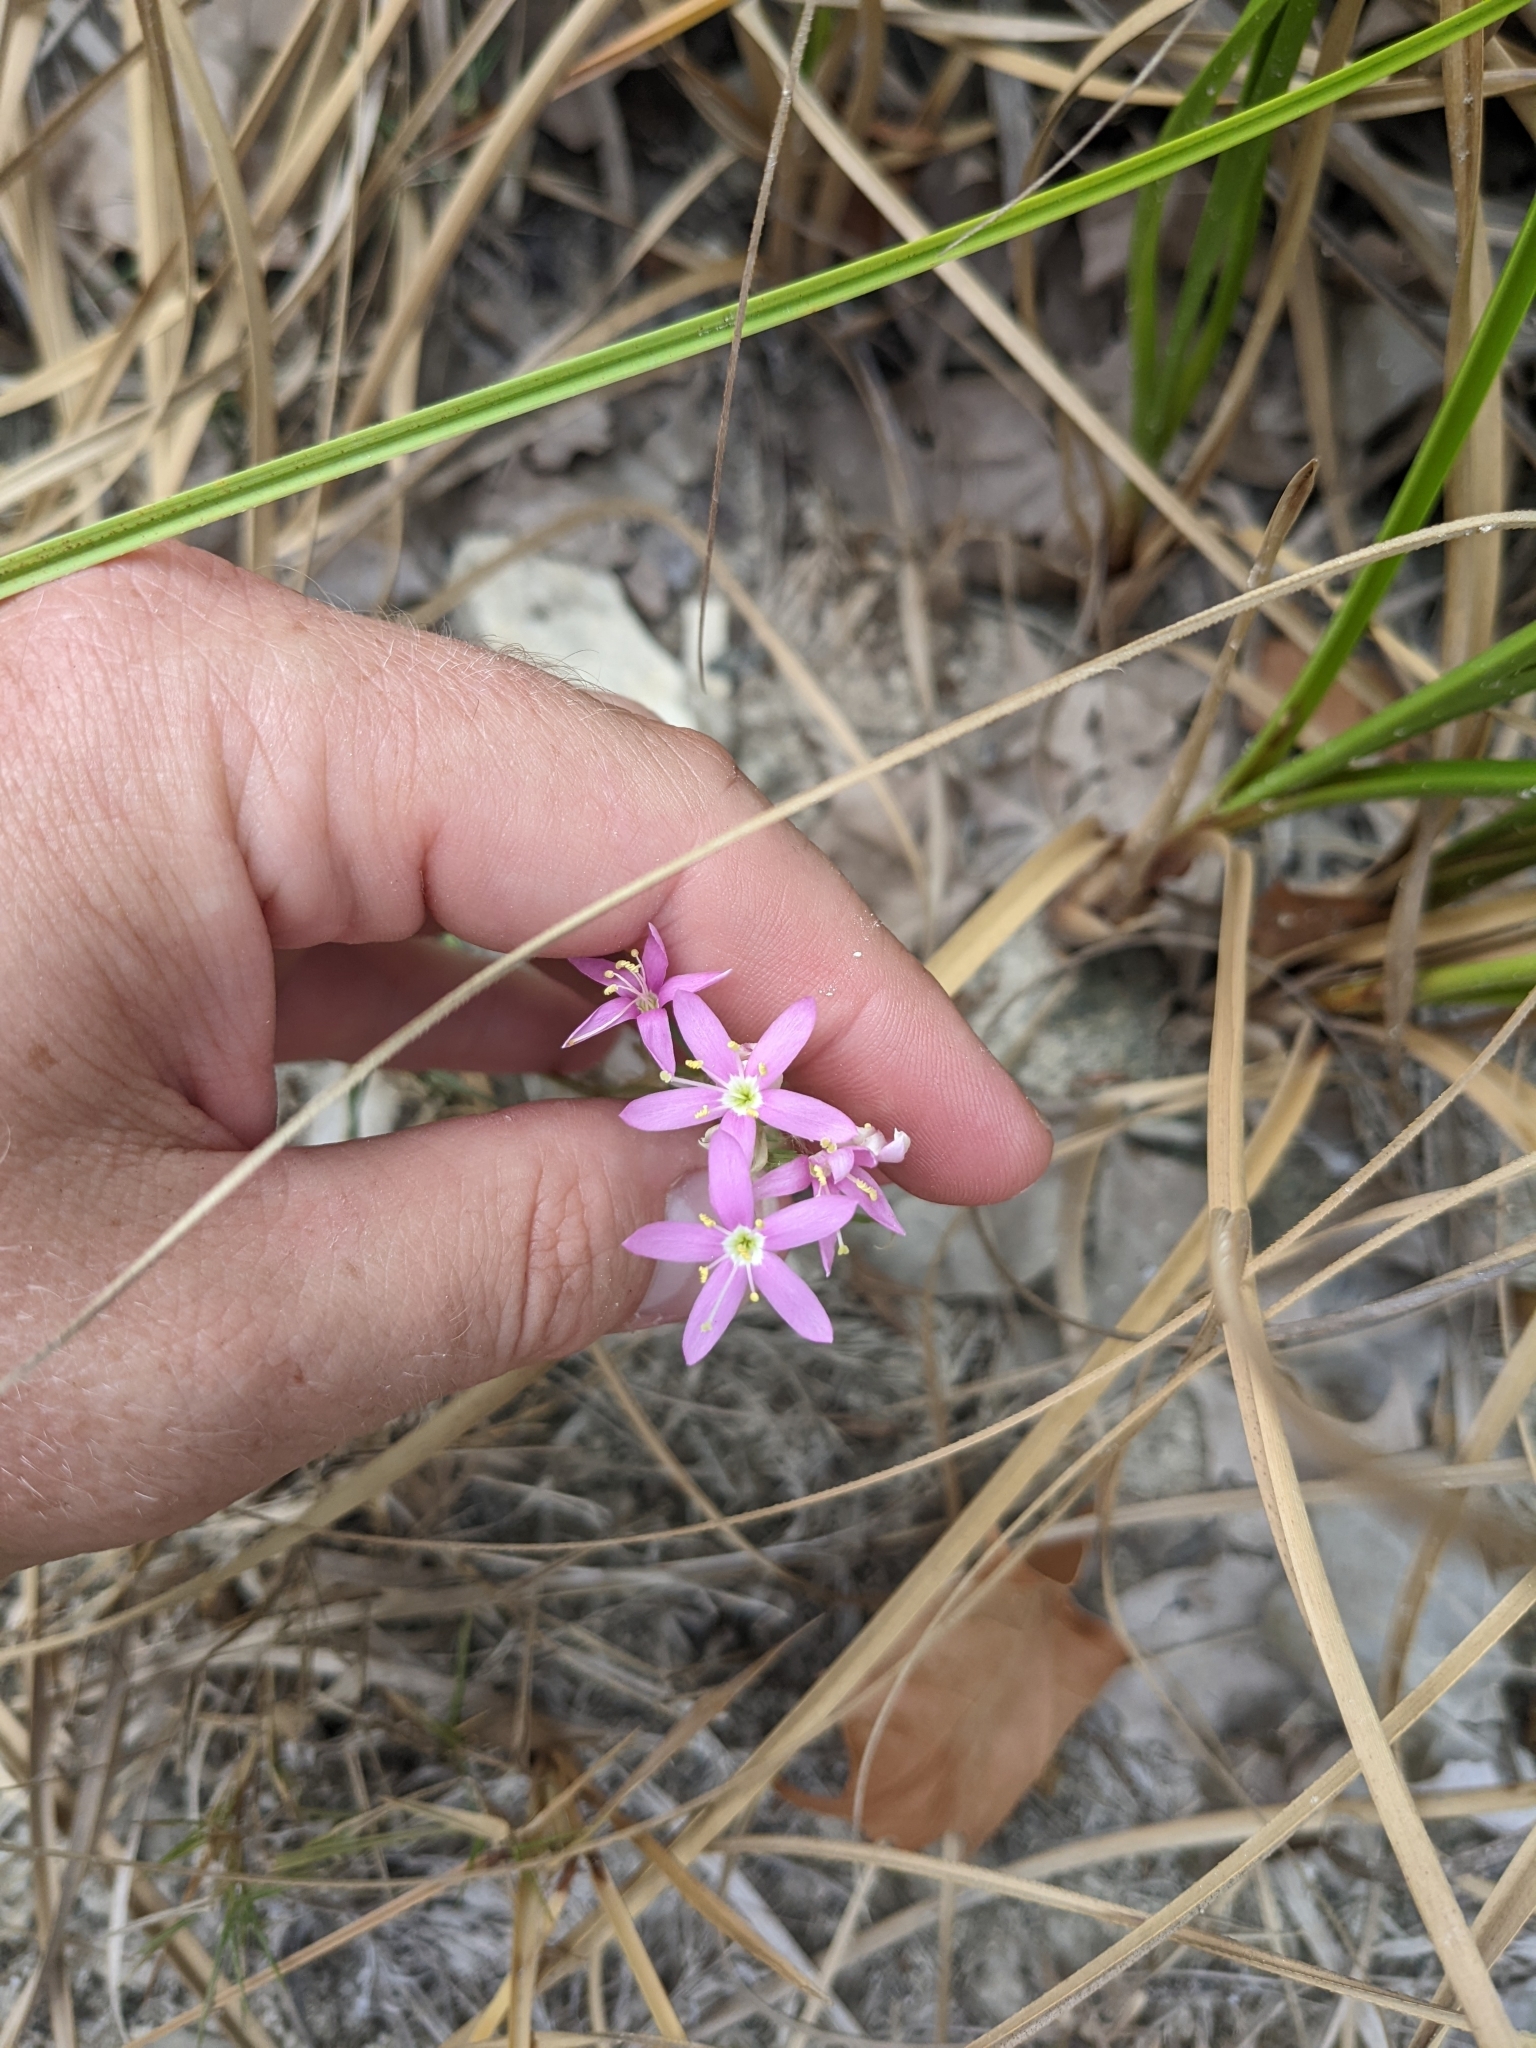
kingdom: Plantae
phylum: Tracheophyta
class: Magnoliopsida
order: Gentianales
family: Gentianaceae
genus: Zeltnera
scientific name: Zeltnera beyrichii
